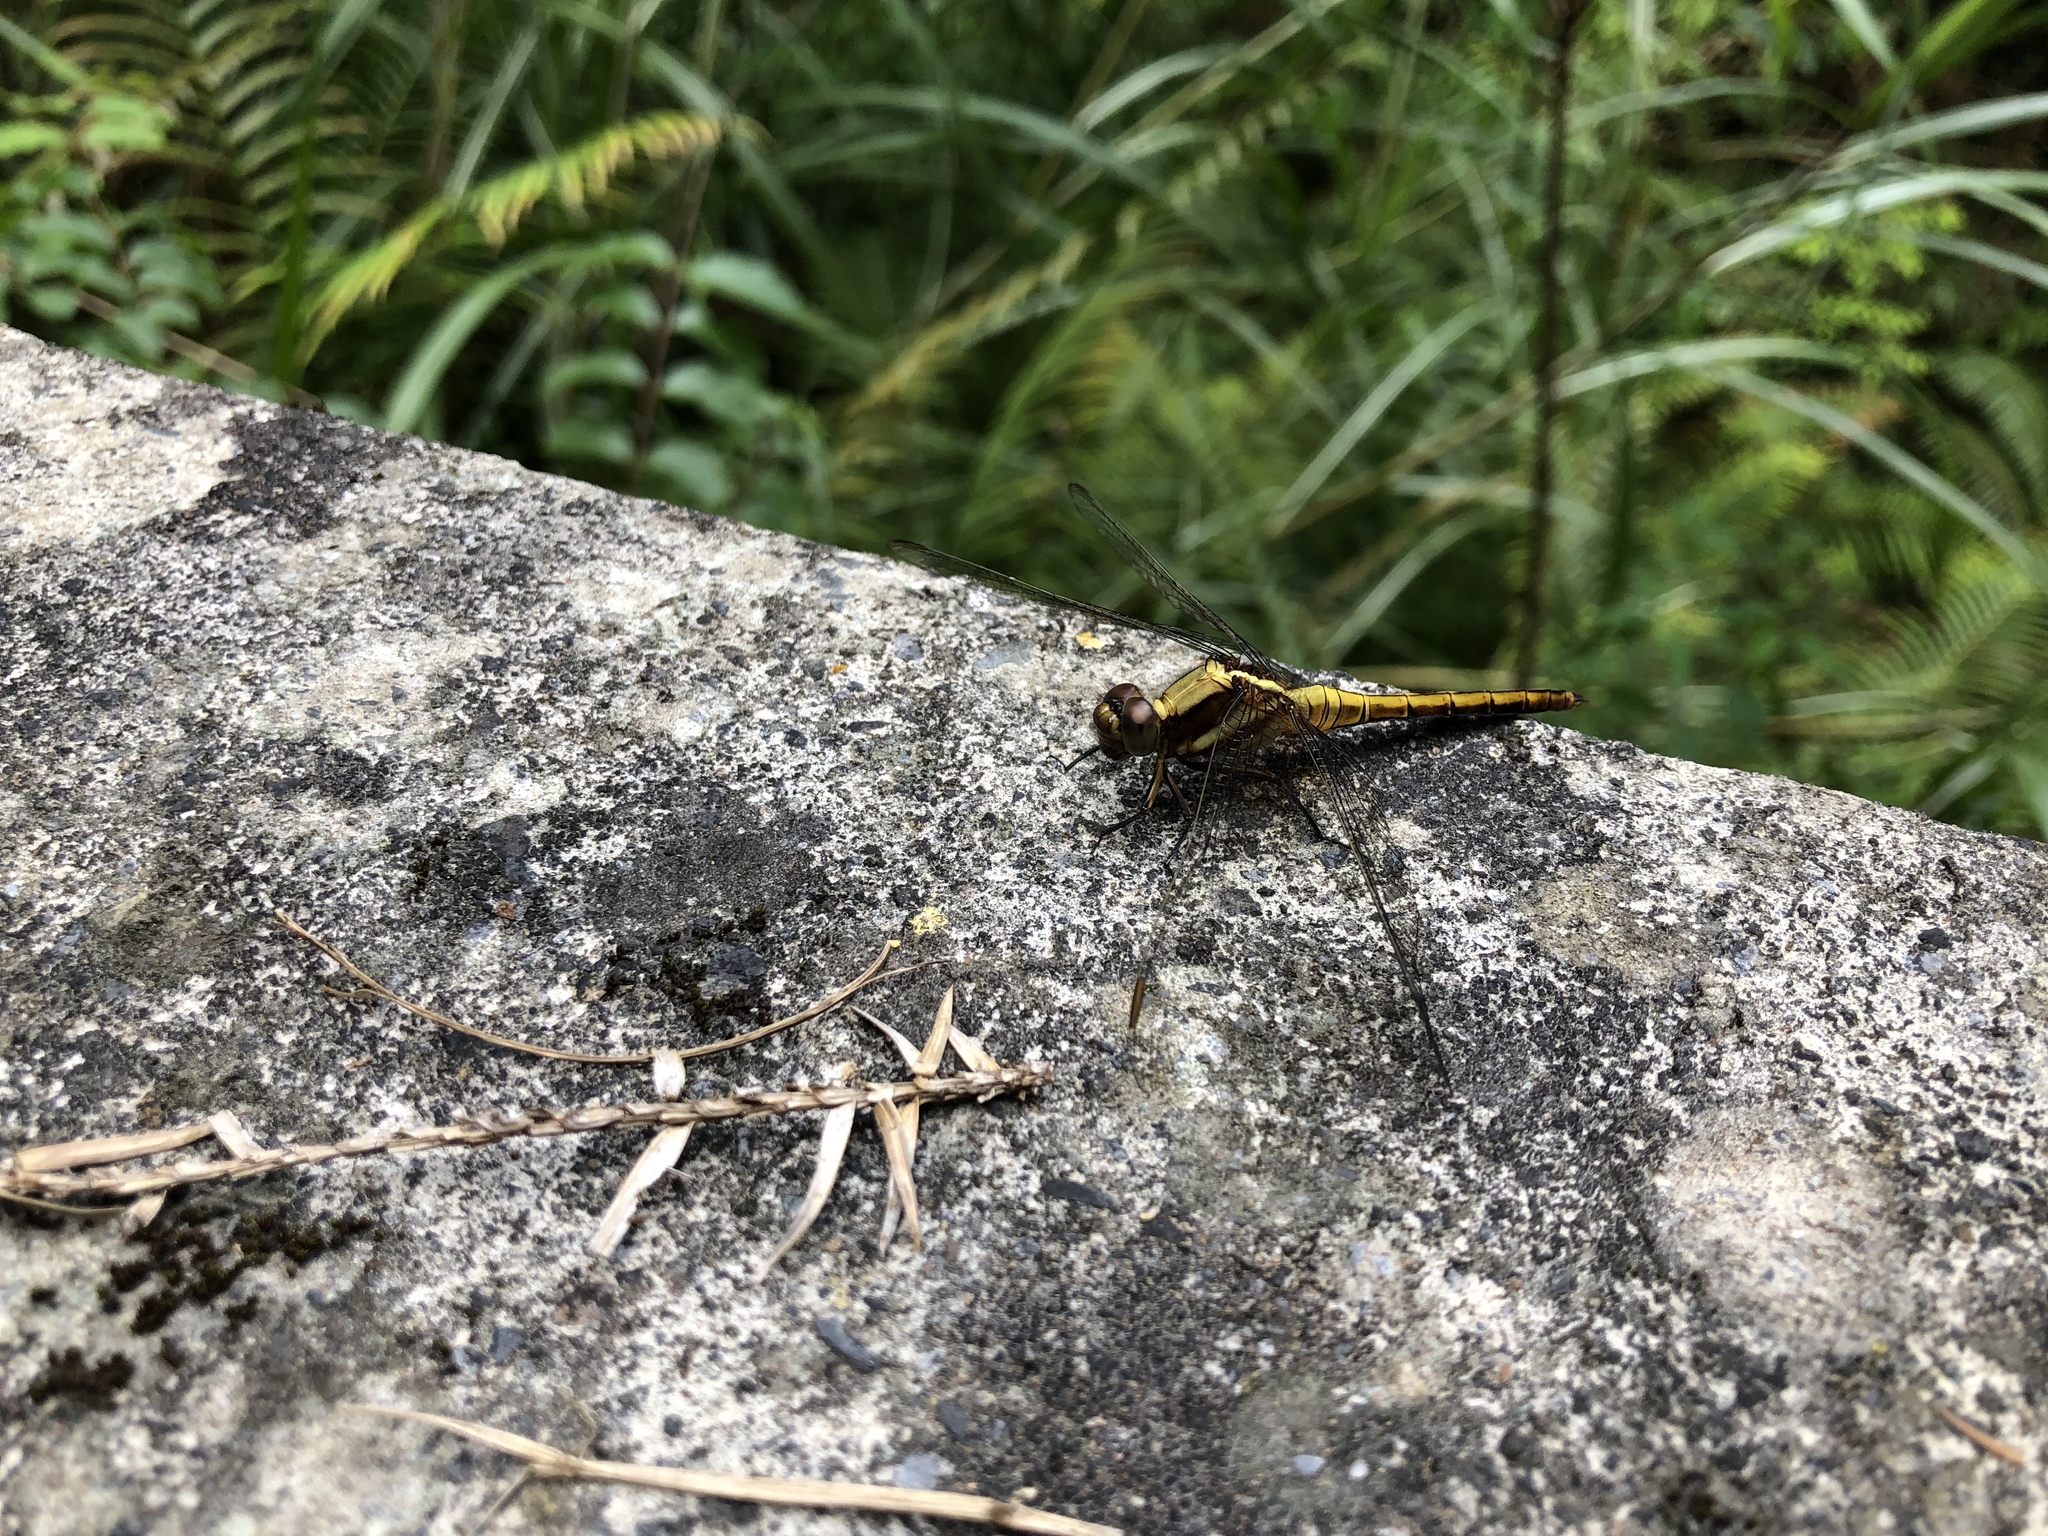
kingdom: Animalia
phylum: Arthropoda
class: Insecta
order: Odonata
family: Libellulidae
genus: Orthetrum
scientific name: Orthetrum glaucum
